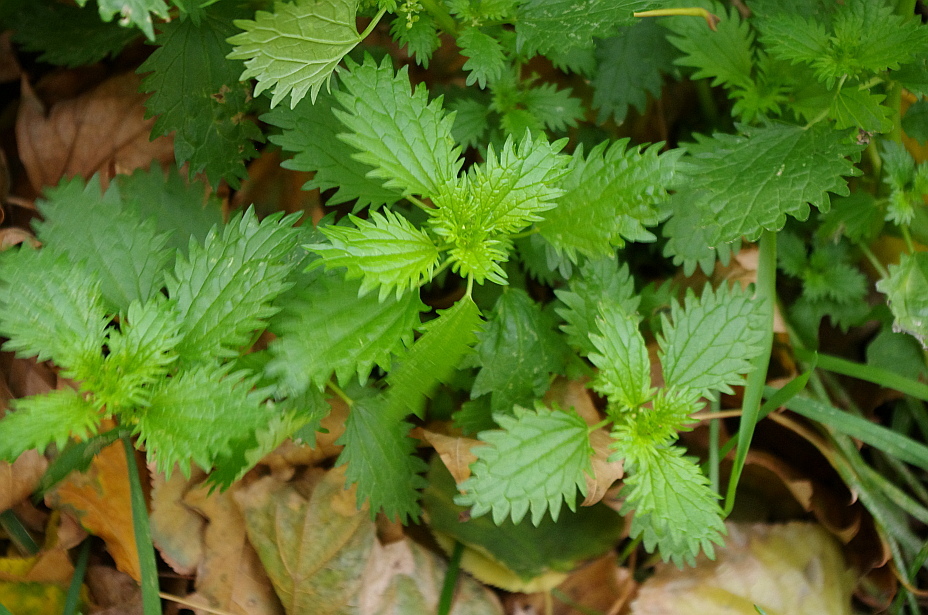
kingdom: Plantae
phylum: Tracheophyta
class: Magnoliopsida
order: Rosales
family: Urticaceae
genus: Urtica
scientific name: Urtica urens
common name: Dwarf nettle
